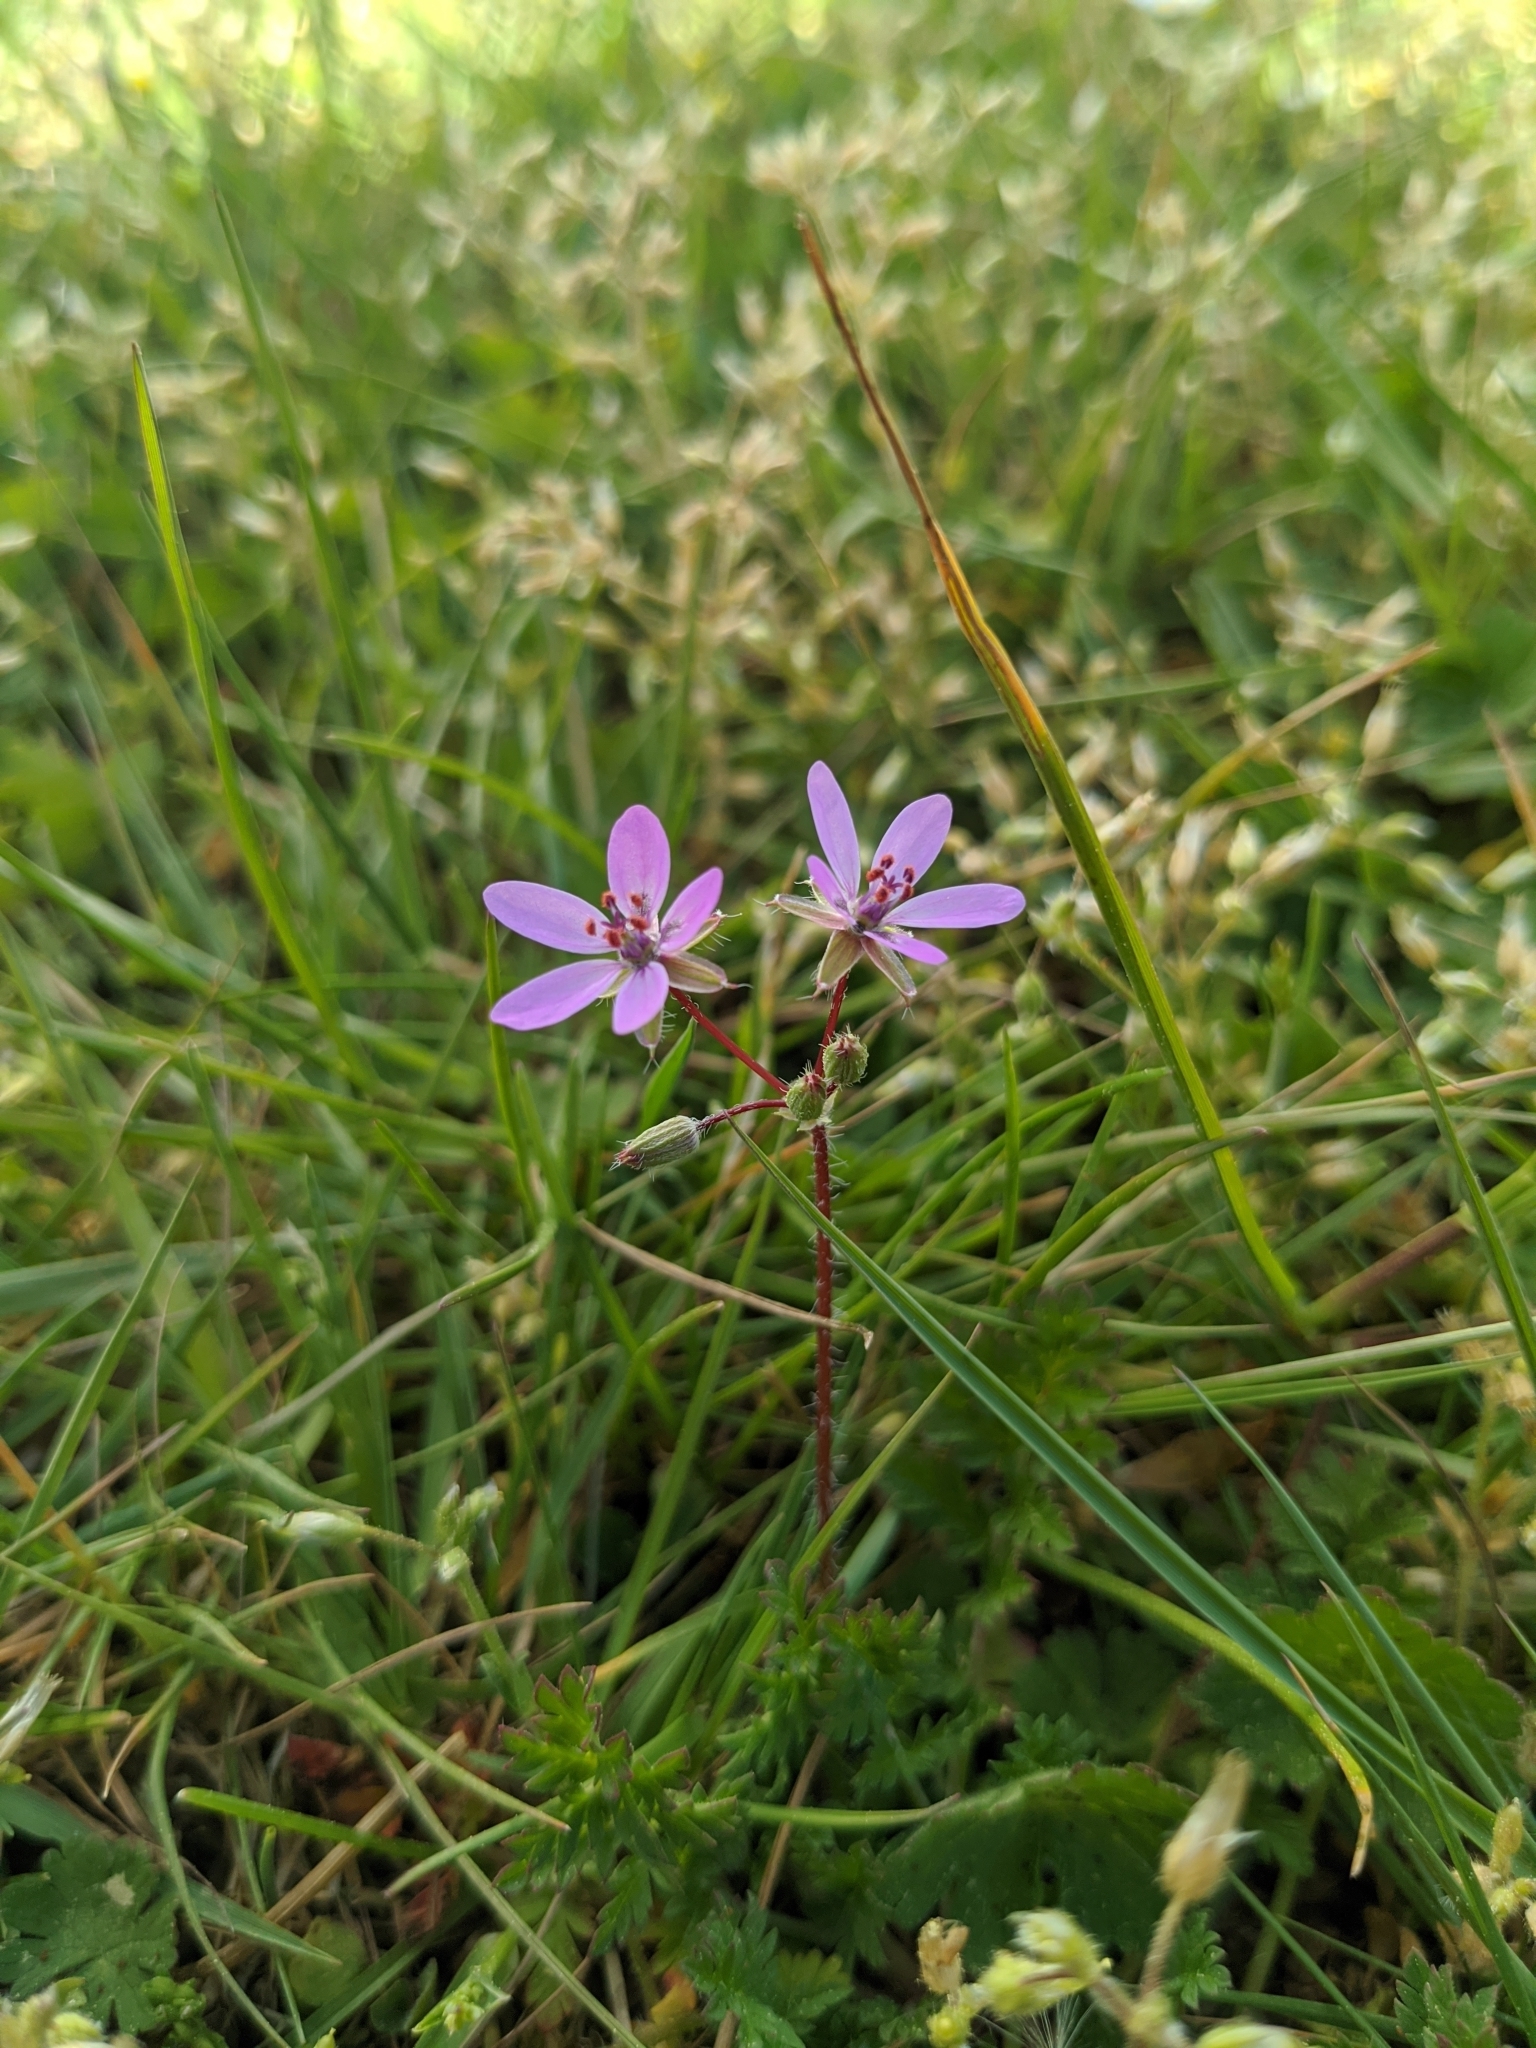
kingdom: Plantae
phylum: Tracheophyta
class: Magnoliopsida
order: Geraniales
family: Geraniaceae
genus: Erodium
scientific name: Erodium cicutarium
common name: Common stork's-bill
